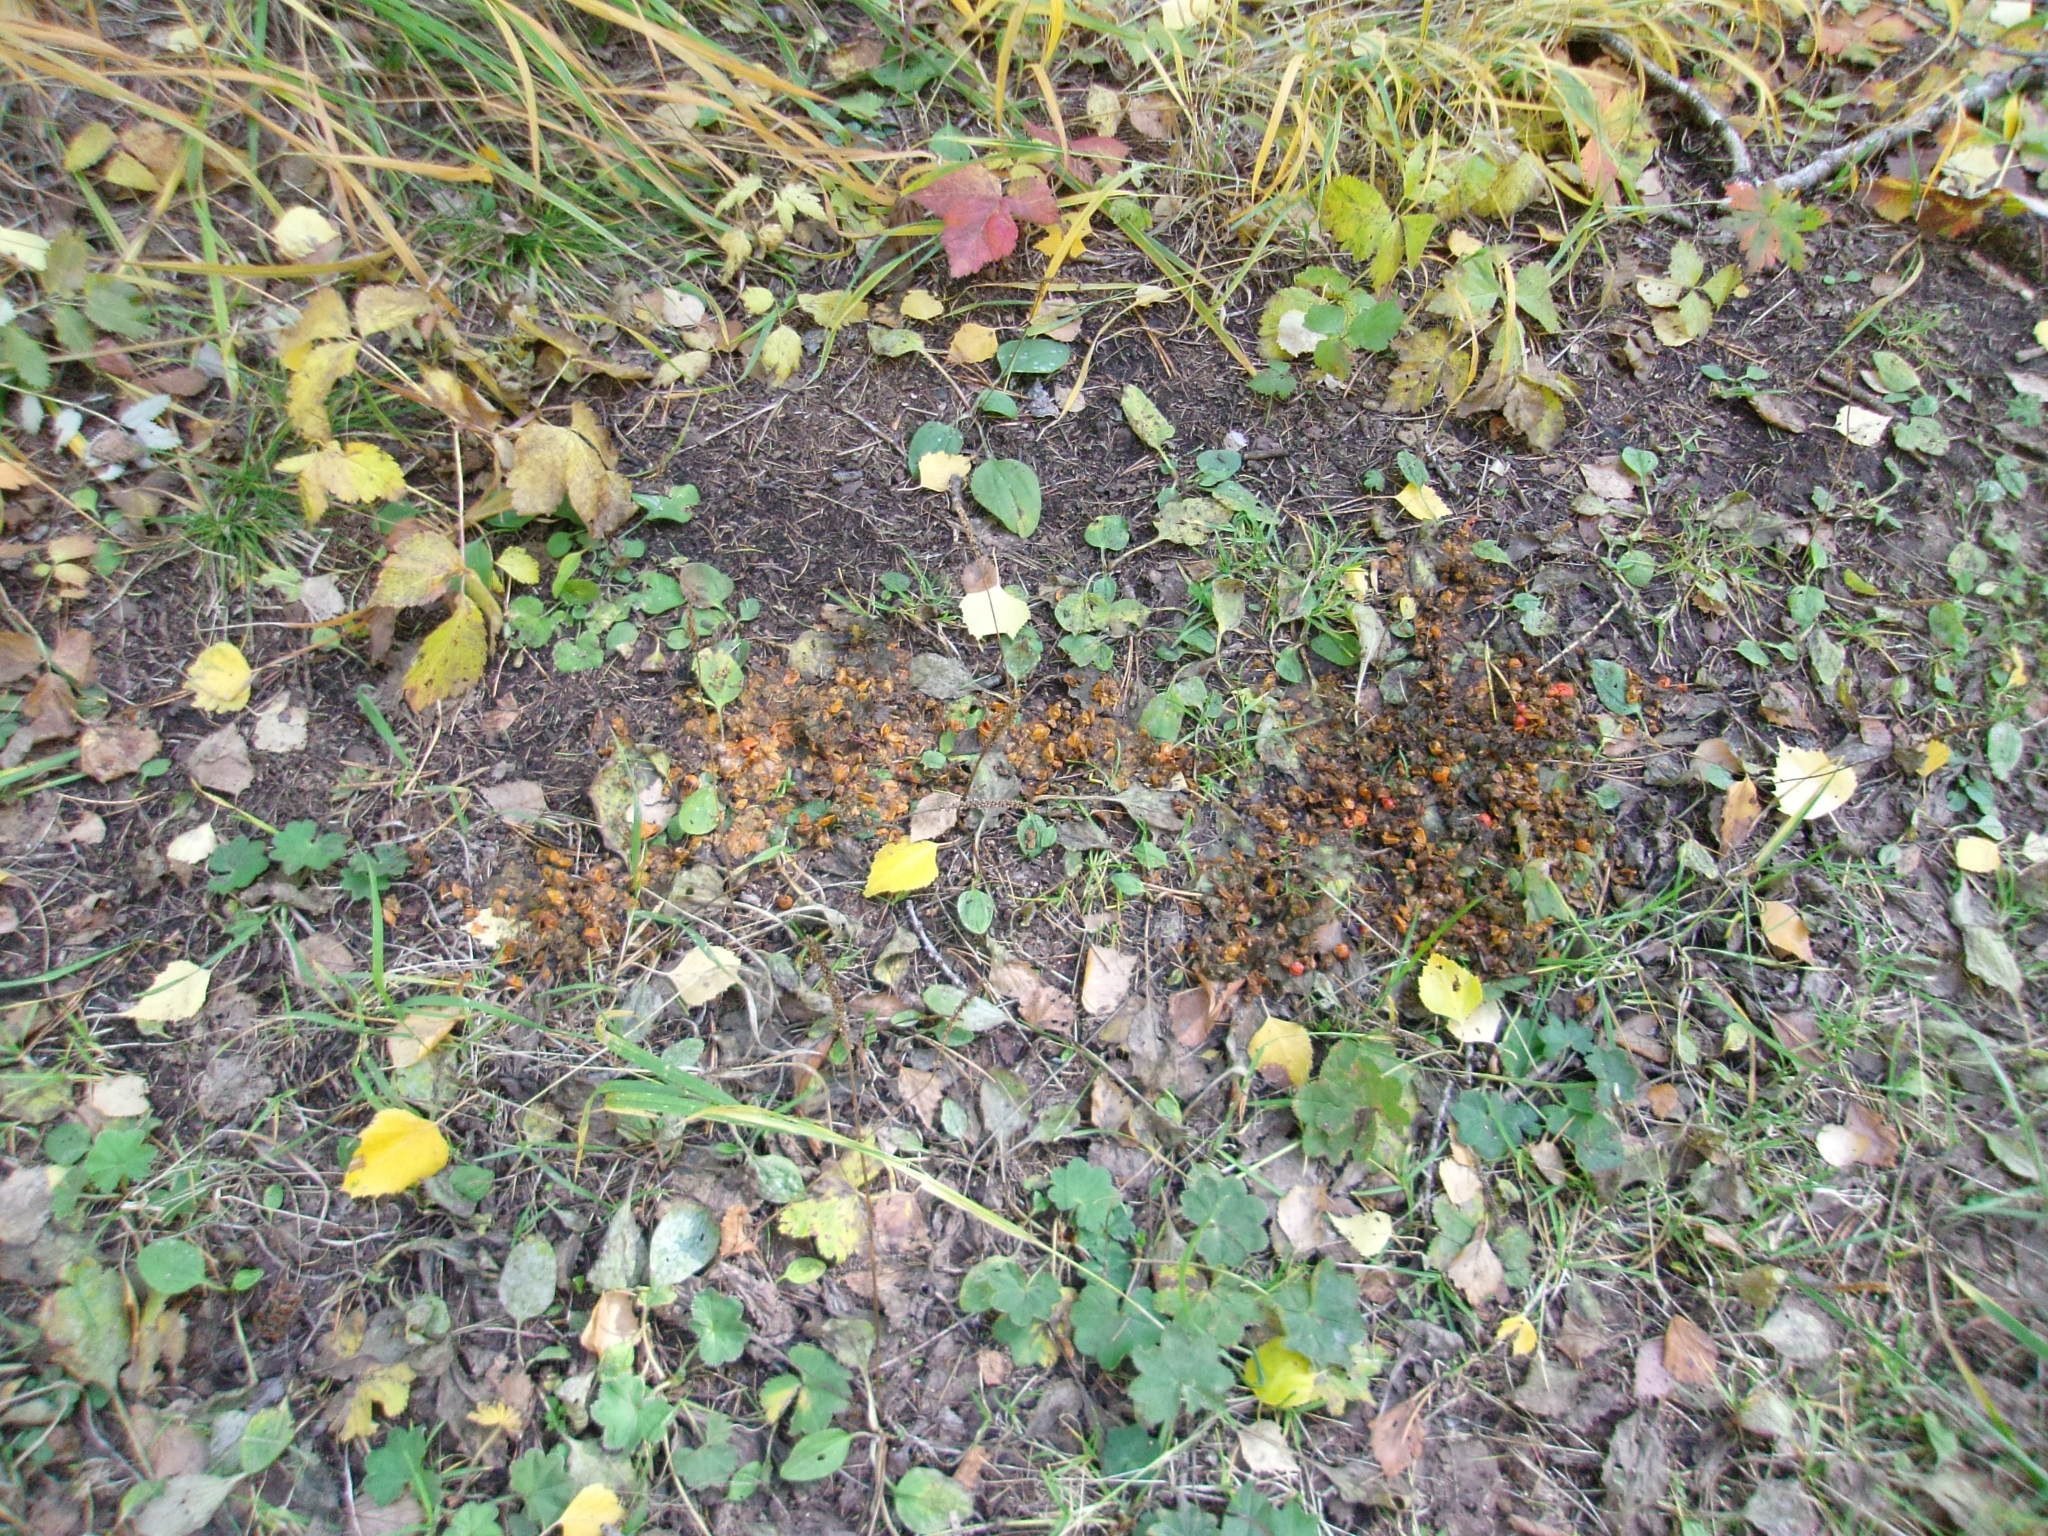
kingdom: Animalia
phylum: Chordata
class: Mammalia
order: Carnivora
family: Ursidae
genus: Ursus
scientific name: Ursus arctos
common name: Brown bear
